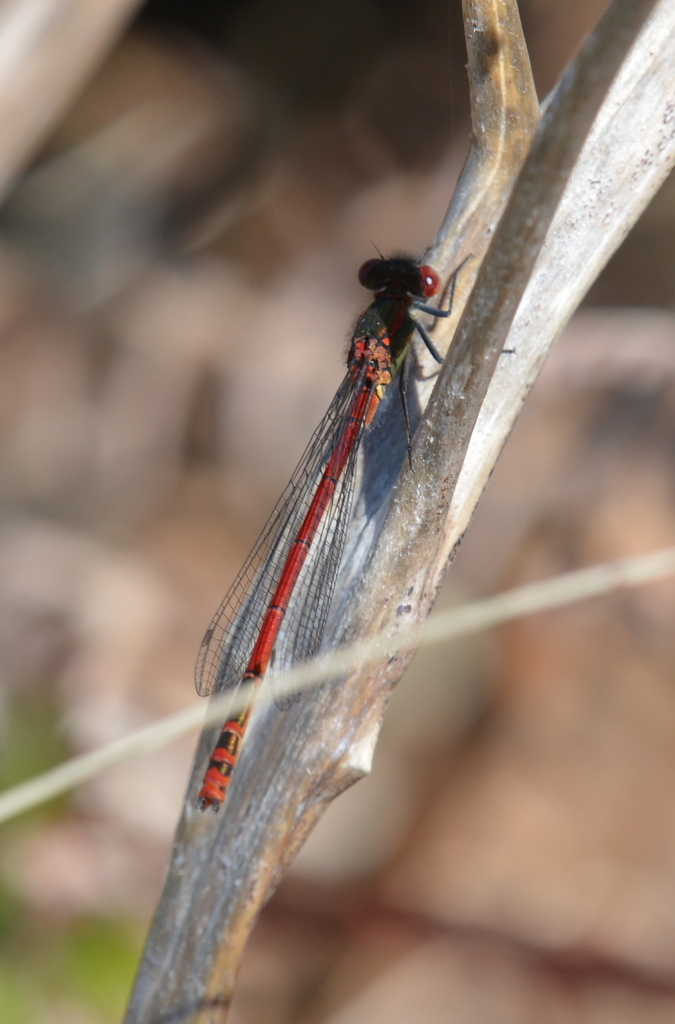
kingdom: Animalia
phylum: Arthropoda
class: Insecta
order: Odonata
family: Coenagrionidae
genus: Pyrrhosoma
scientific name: Pyrrhosoma nymphula
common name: Large red damsel
